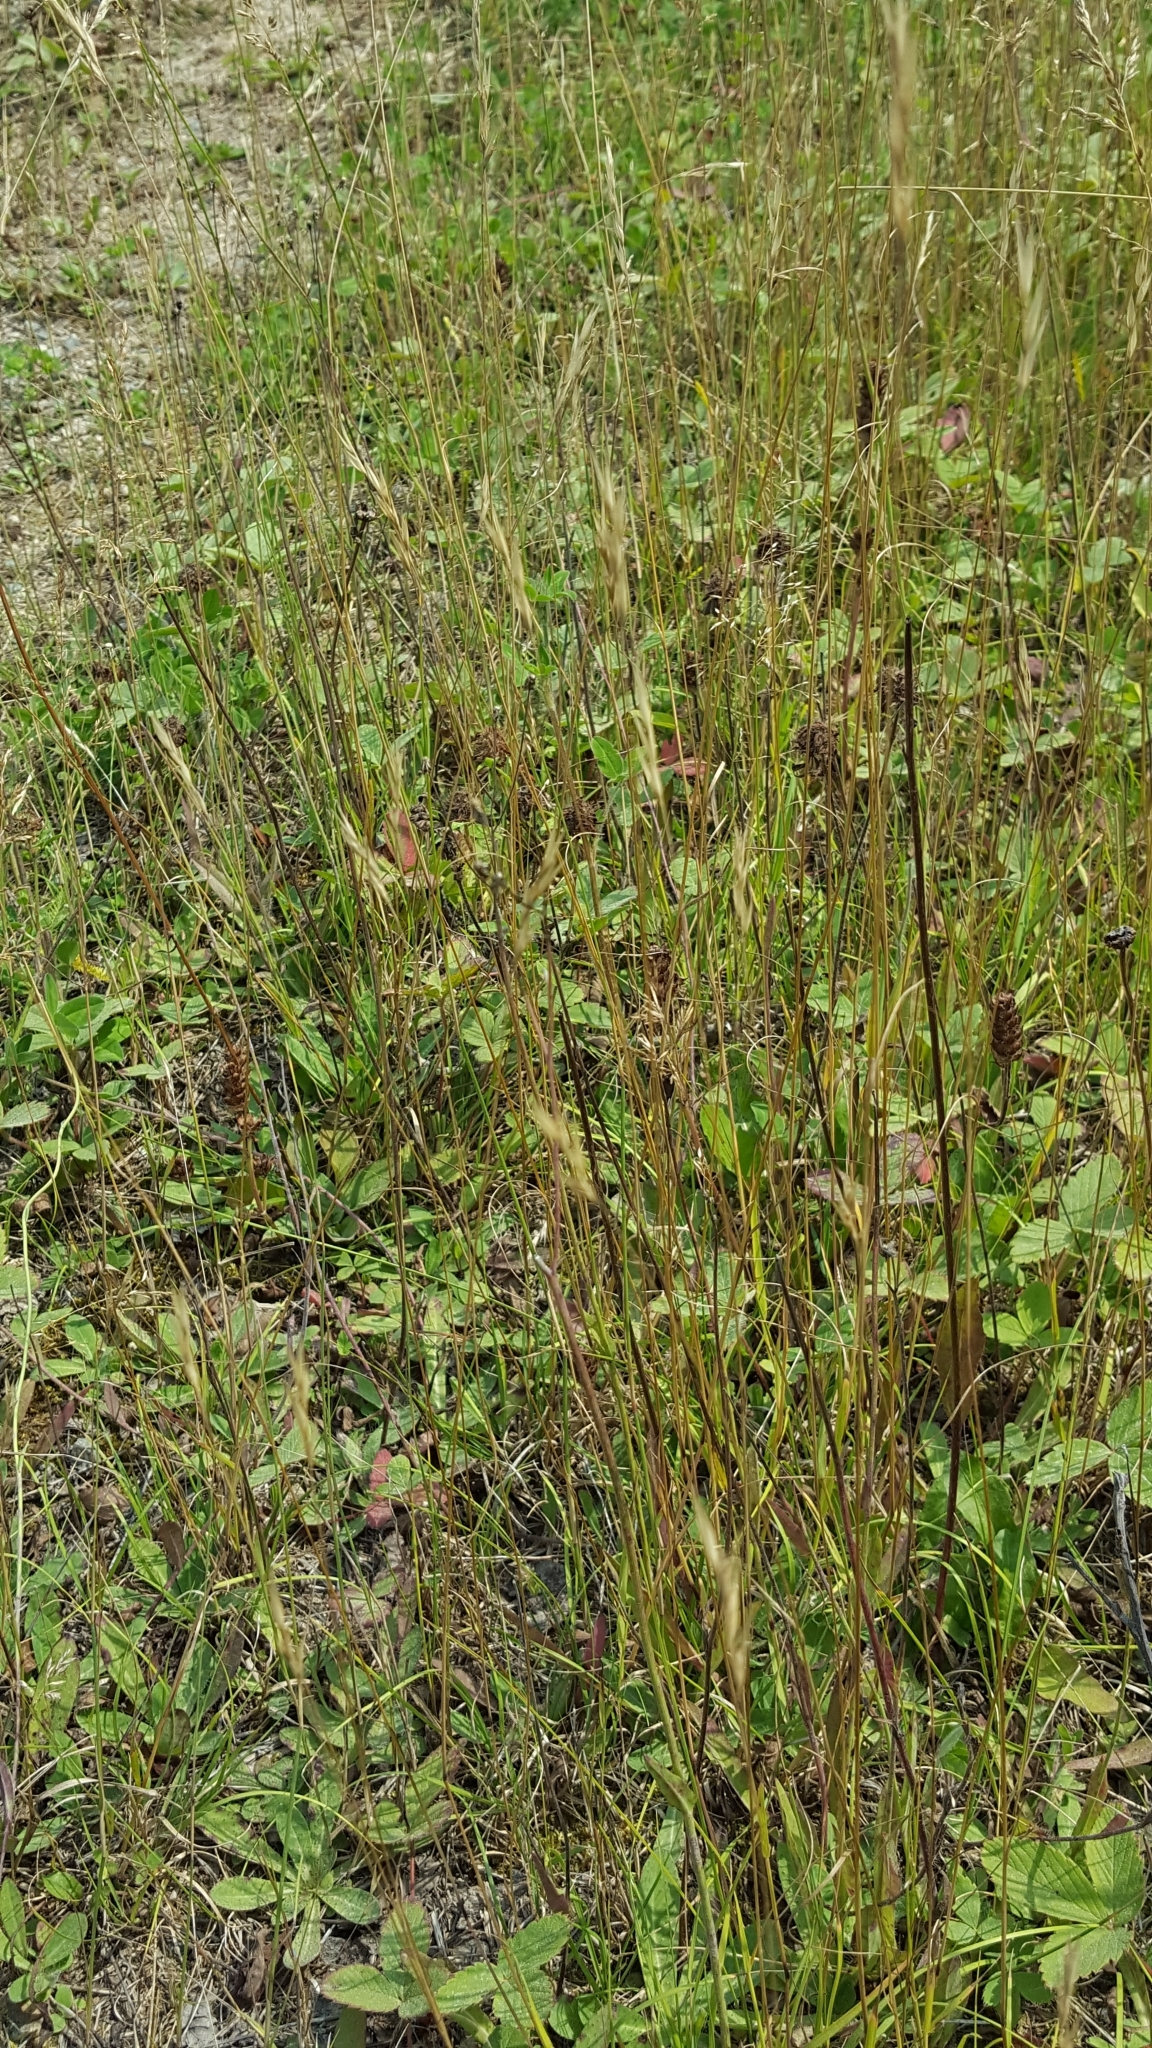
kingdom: Plantae
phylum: Tracheophyta
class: Liliopsida
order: Poales
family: Poaceae
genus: Danthonia
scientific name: Danthonia spicata
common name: Common wild oatgrass
